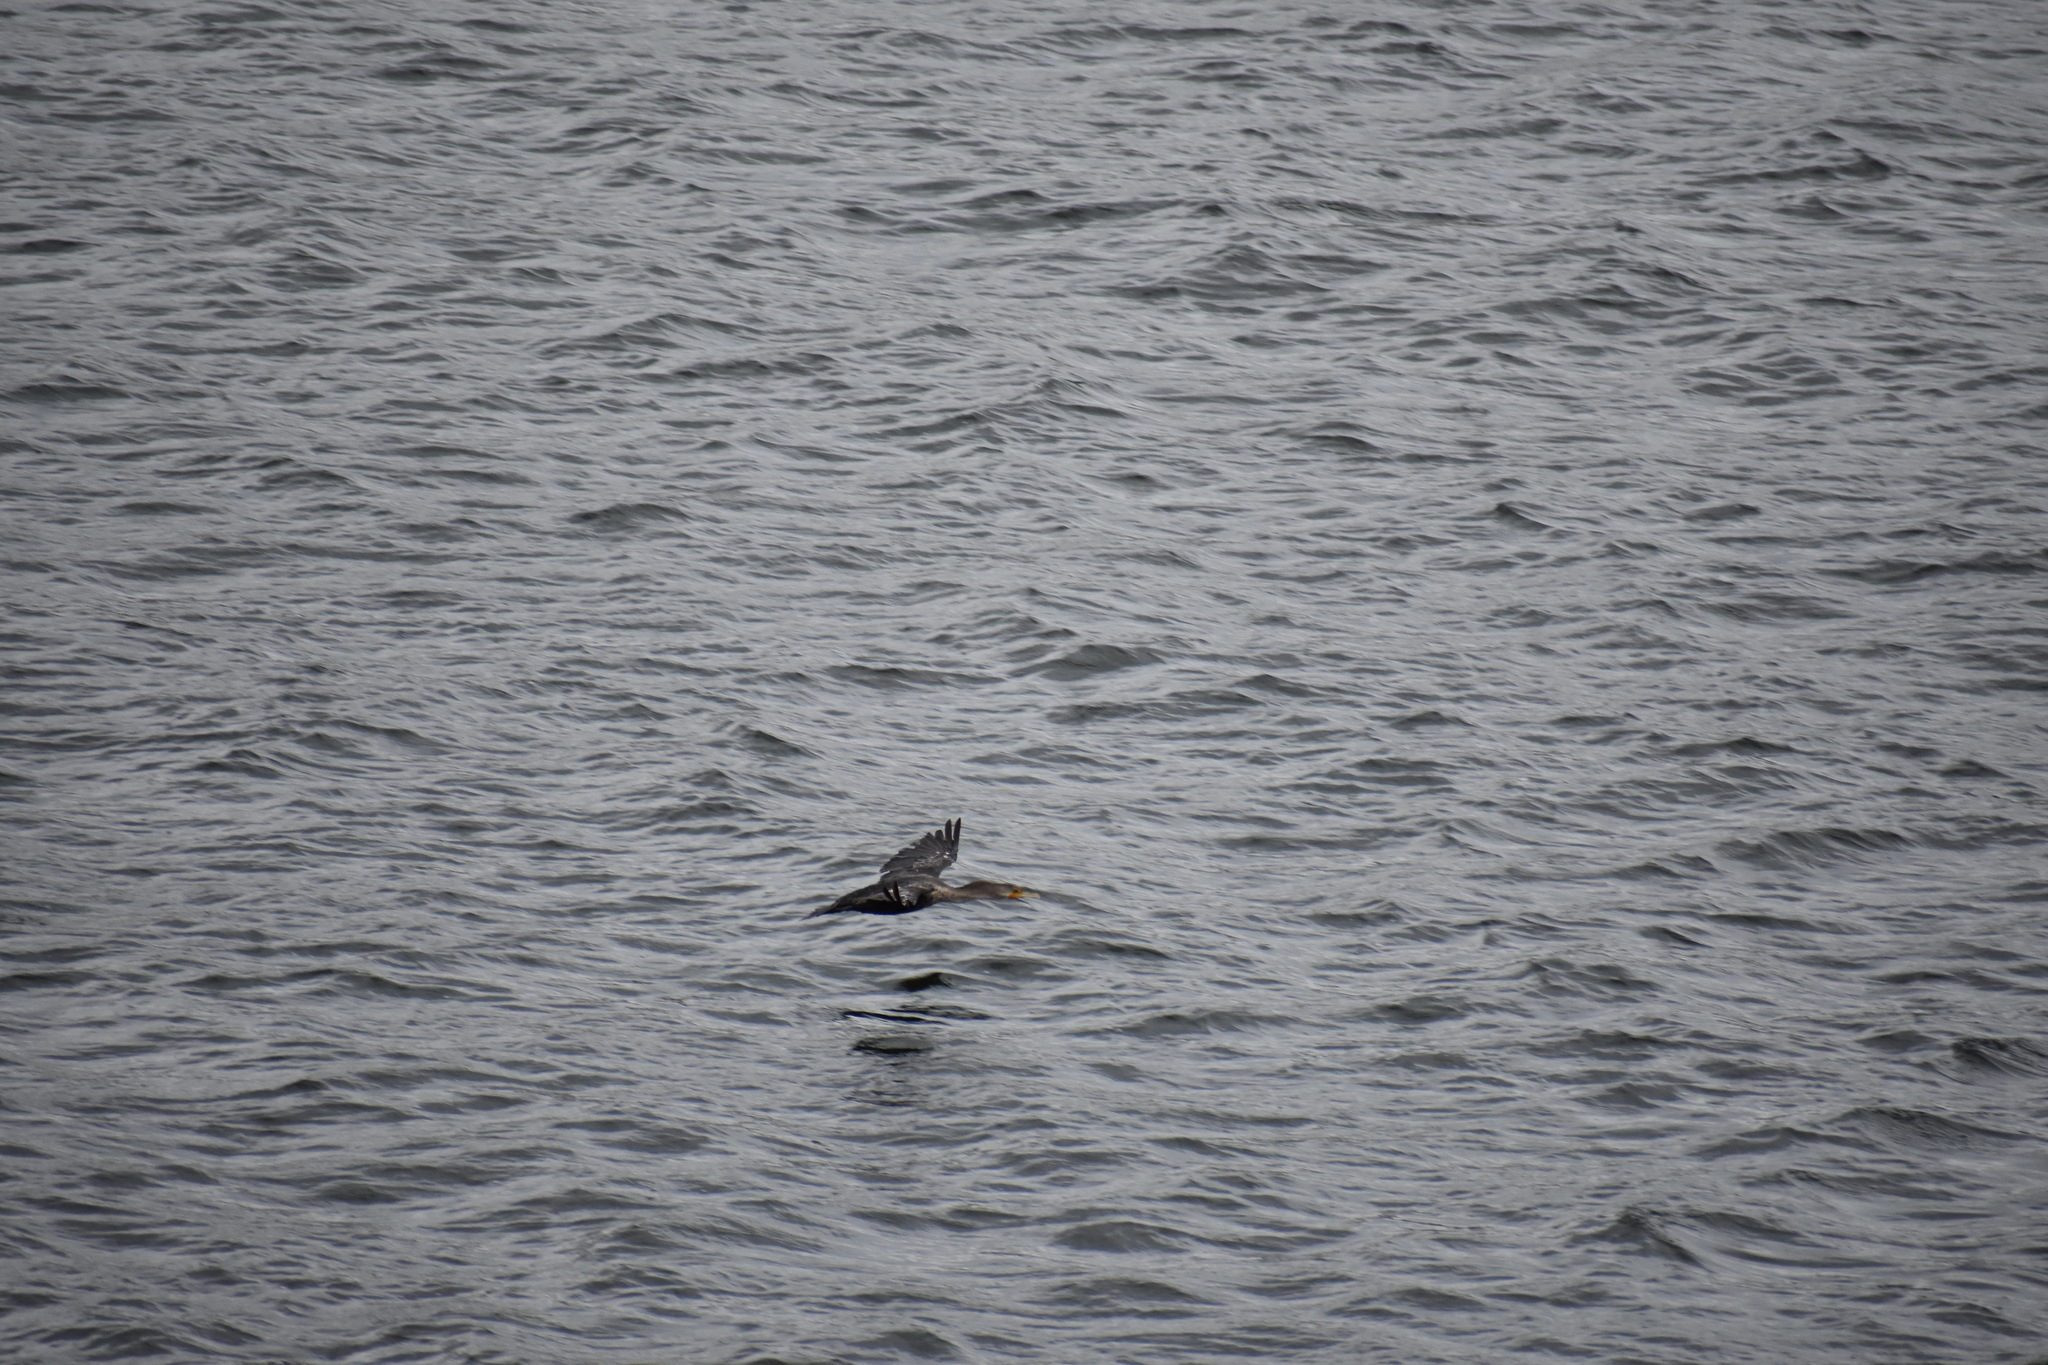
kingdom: Animalia
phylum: Chordata
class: Aves
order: Suliformes
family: Phalacrocoracidae
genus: Phalacrocorax
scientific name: Phalacrocorax auritus
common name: Double-crested cormorant
